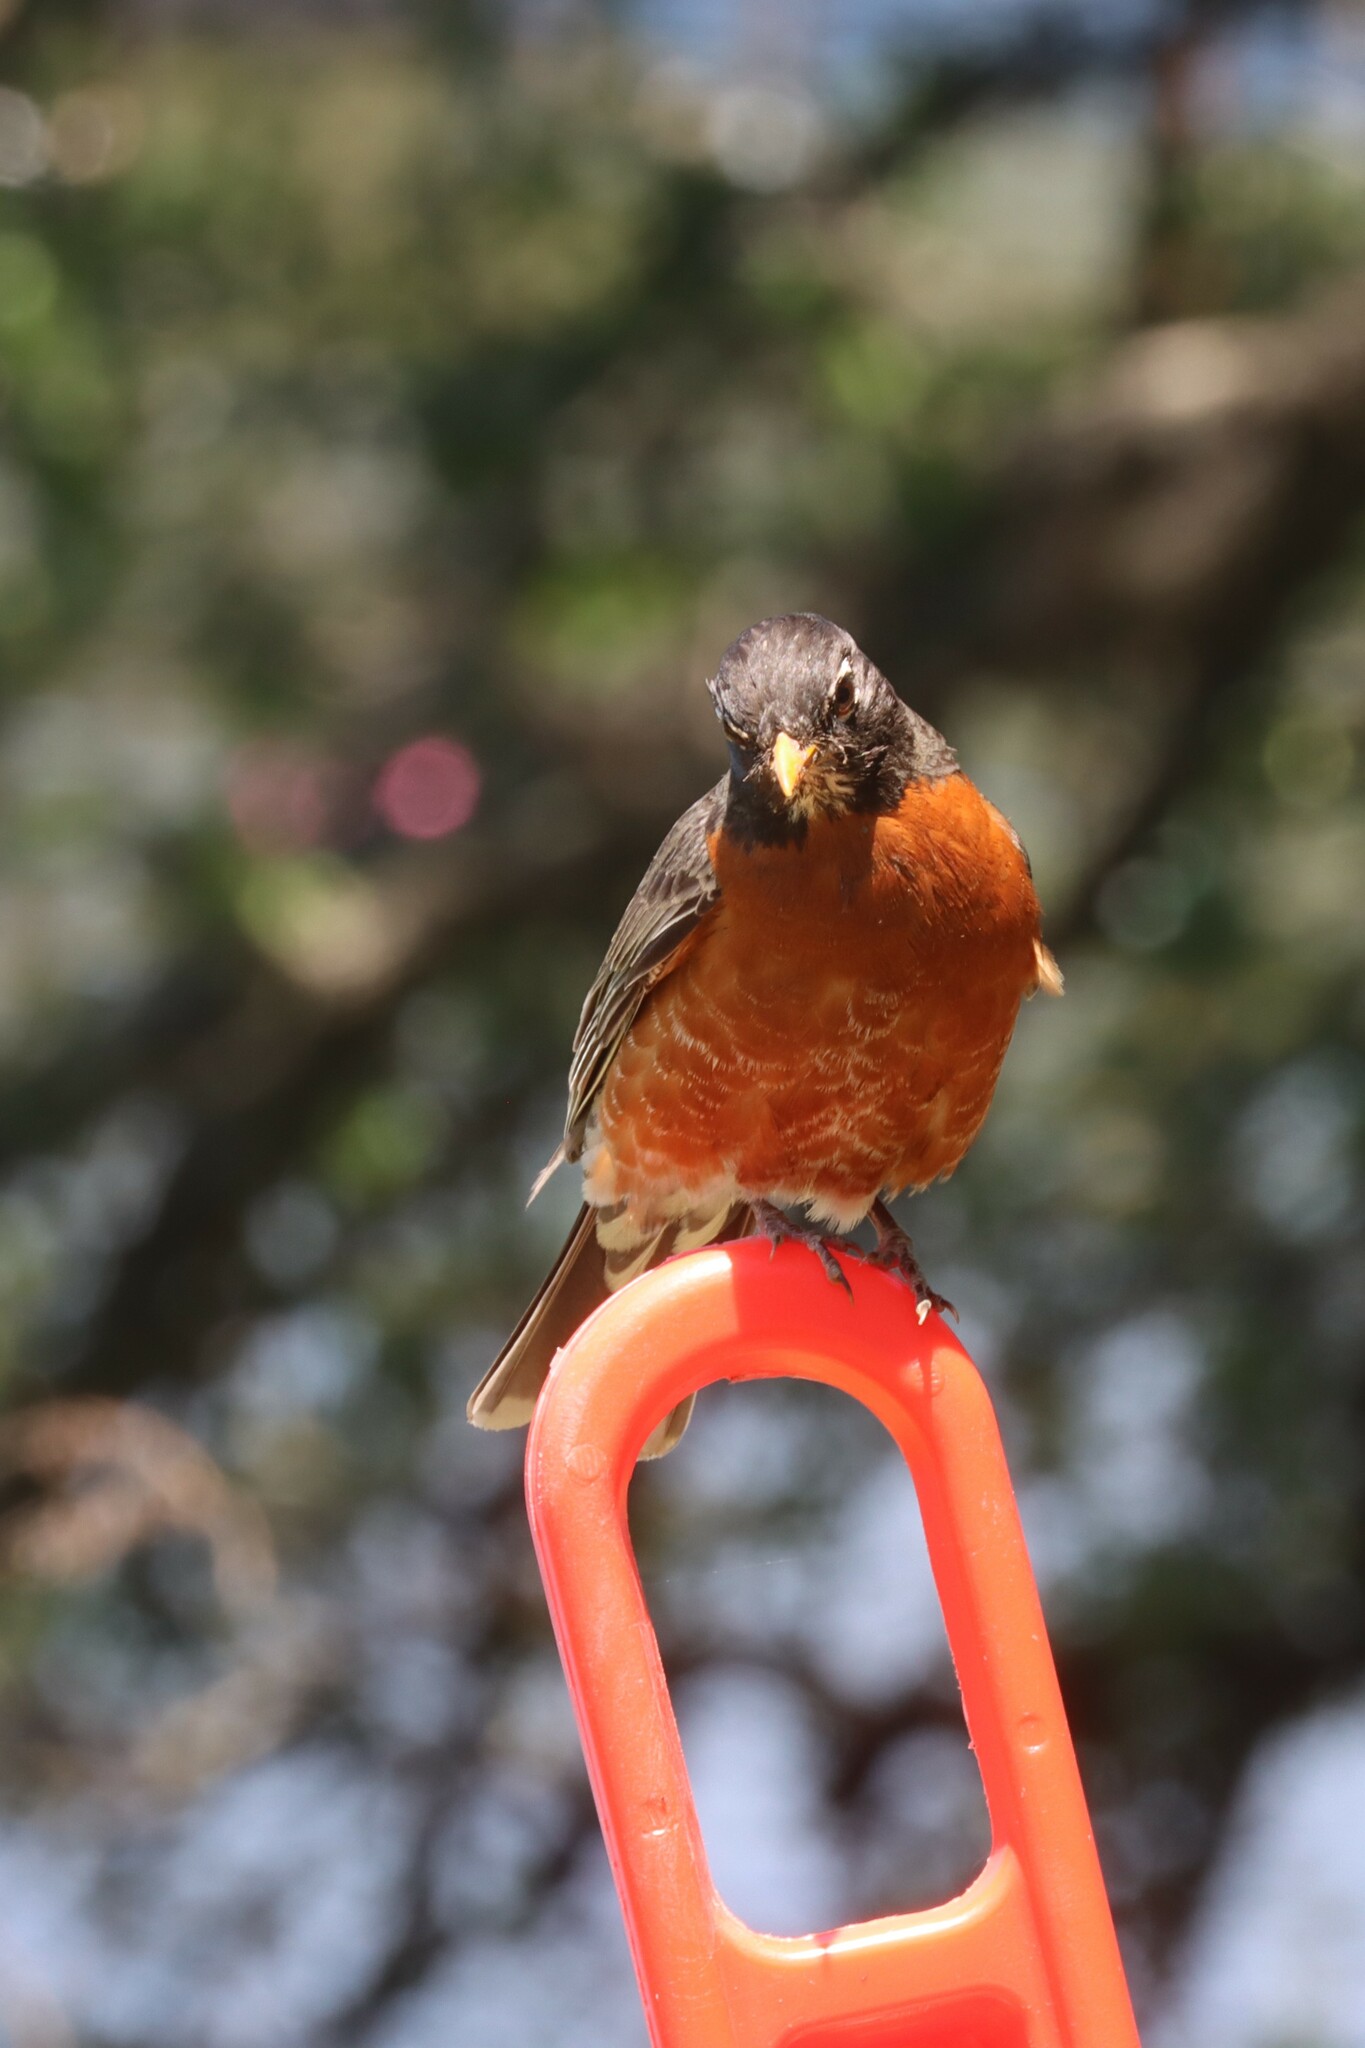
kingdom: Animalia
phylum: Chordata
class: Aves
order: Passeriformes
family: Turdidae
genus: Turdus
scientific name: Turdus migratorius
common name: American robin
